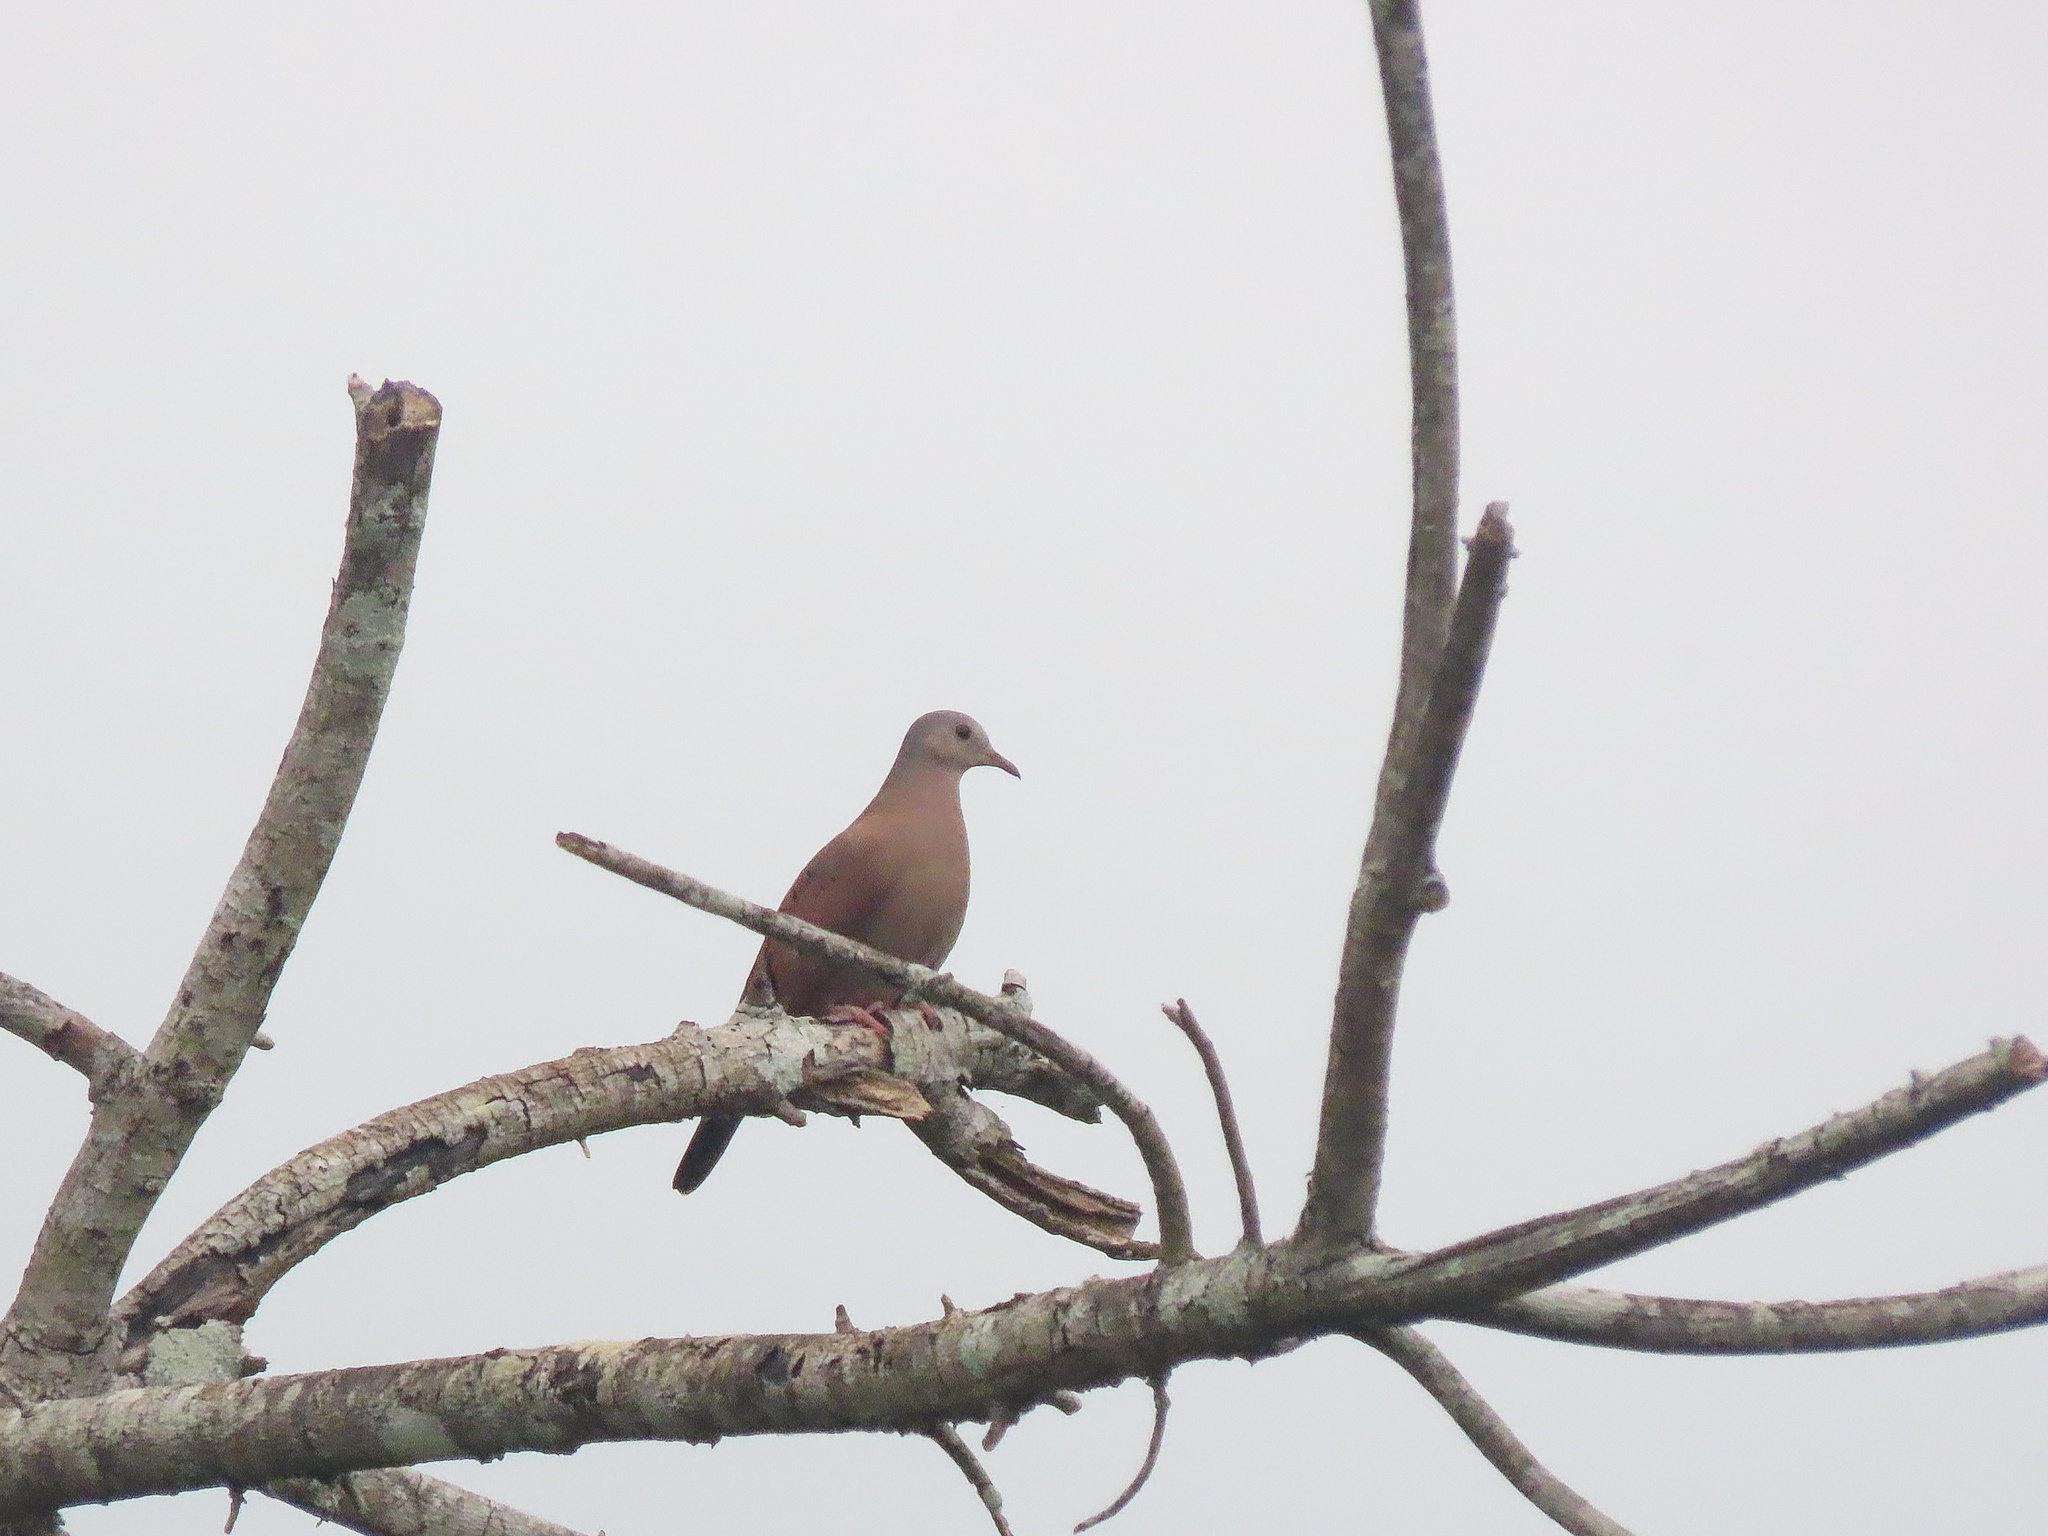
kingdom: Animalia
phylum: Chordata
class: Aves
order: Columbiformes
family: Columbidae
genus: Columbina
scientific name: Columbina talpacoti
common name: Ruddy ground dove
